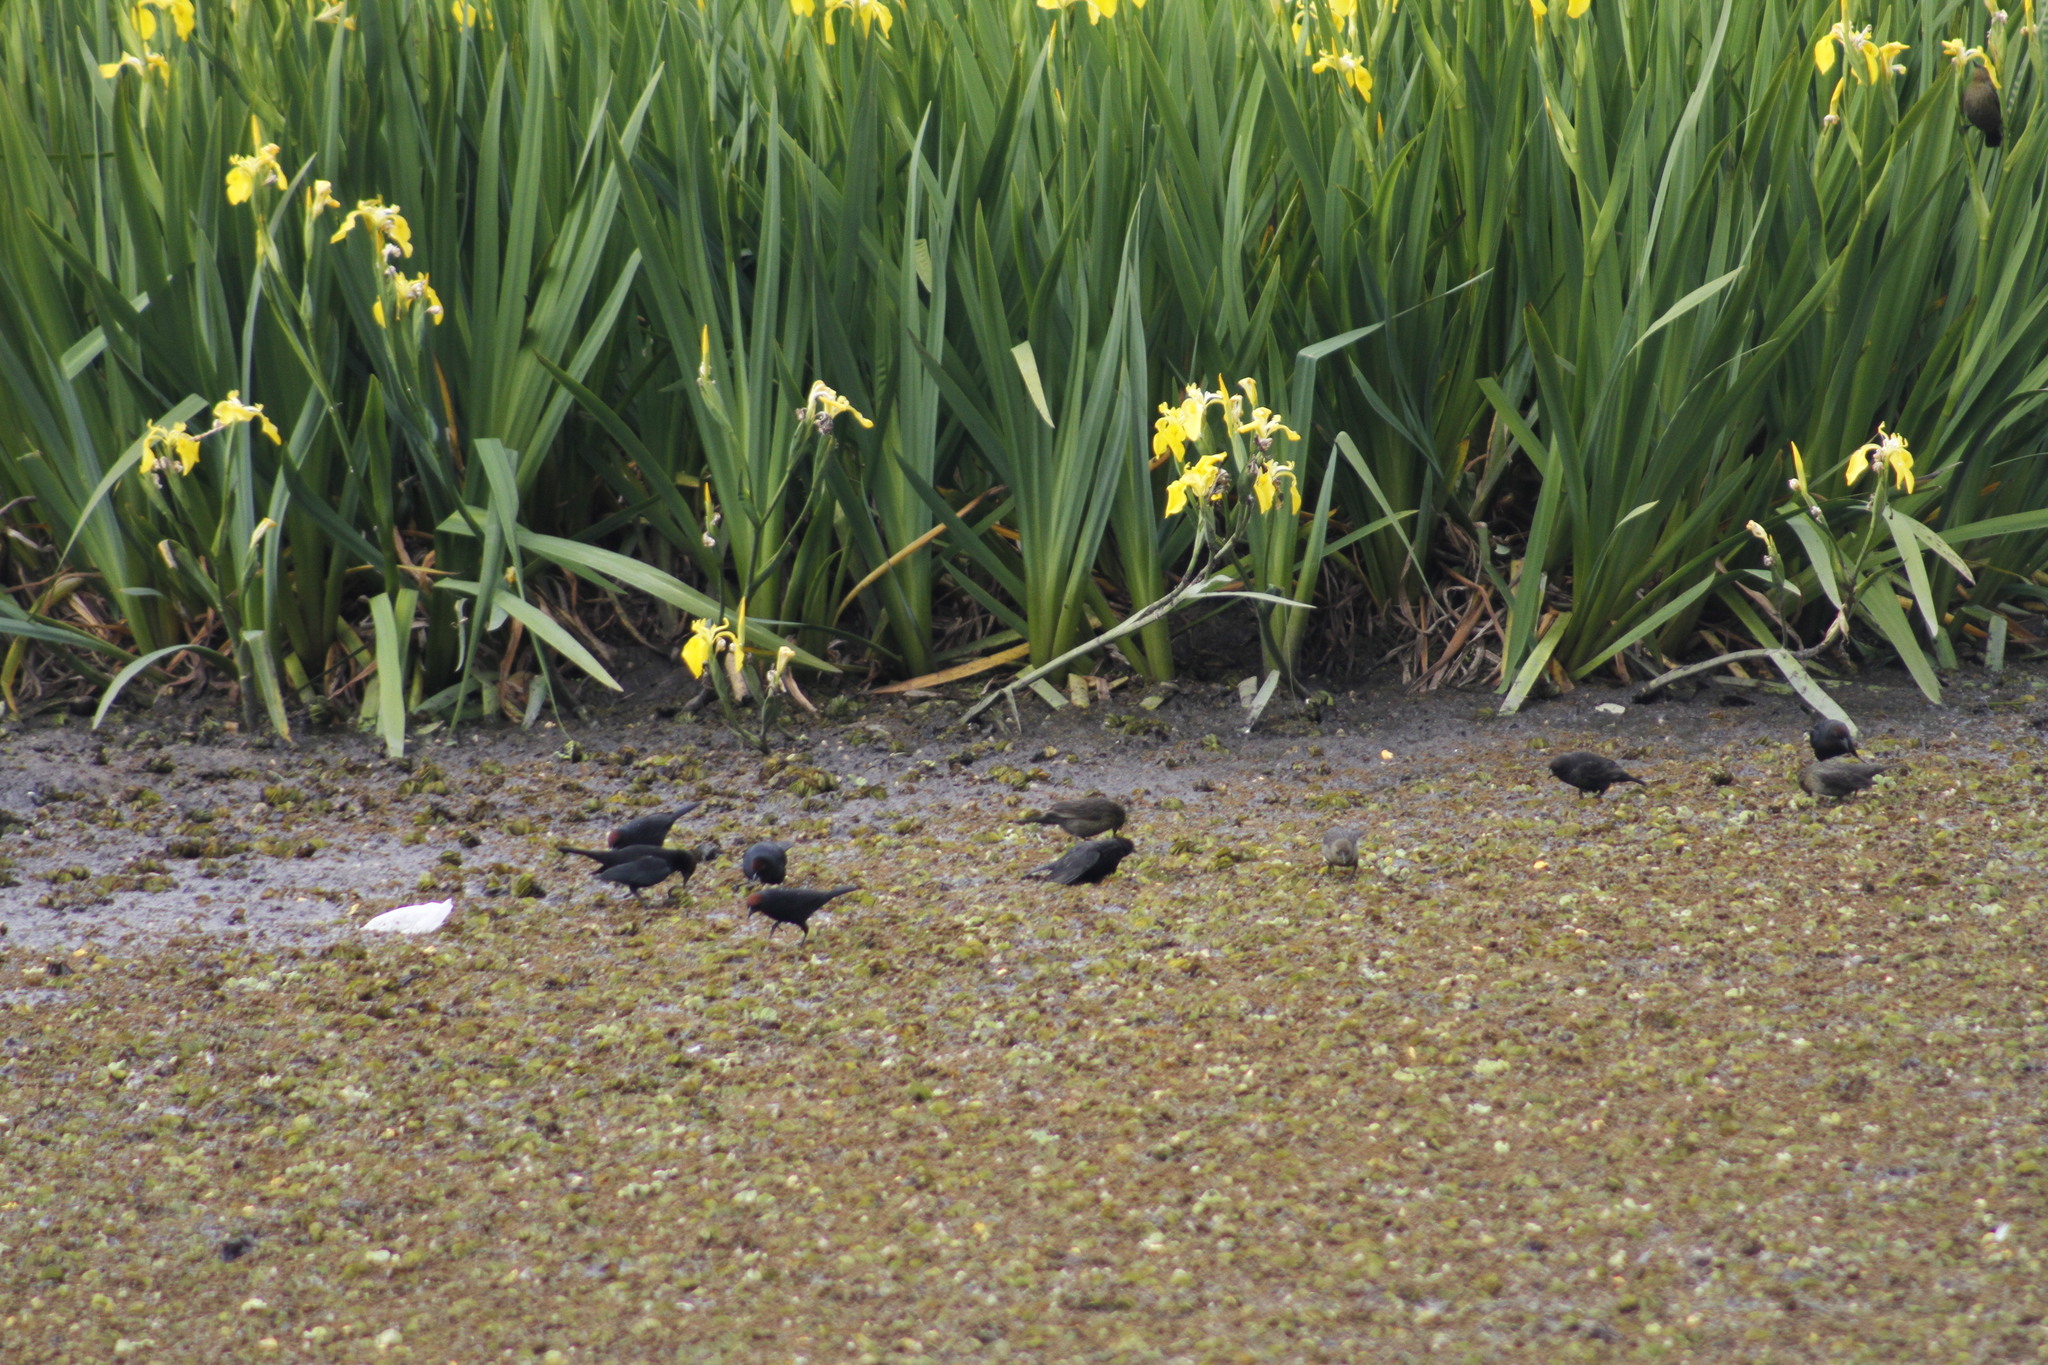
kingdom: Animalia
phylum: Chordata
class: Aves
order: Passeriformes
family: Icteridae
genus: Chrysomus
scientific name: Chrysomus ruficapillus
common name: Chestnut-capped blackbird
